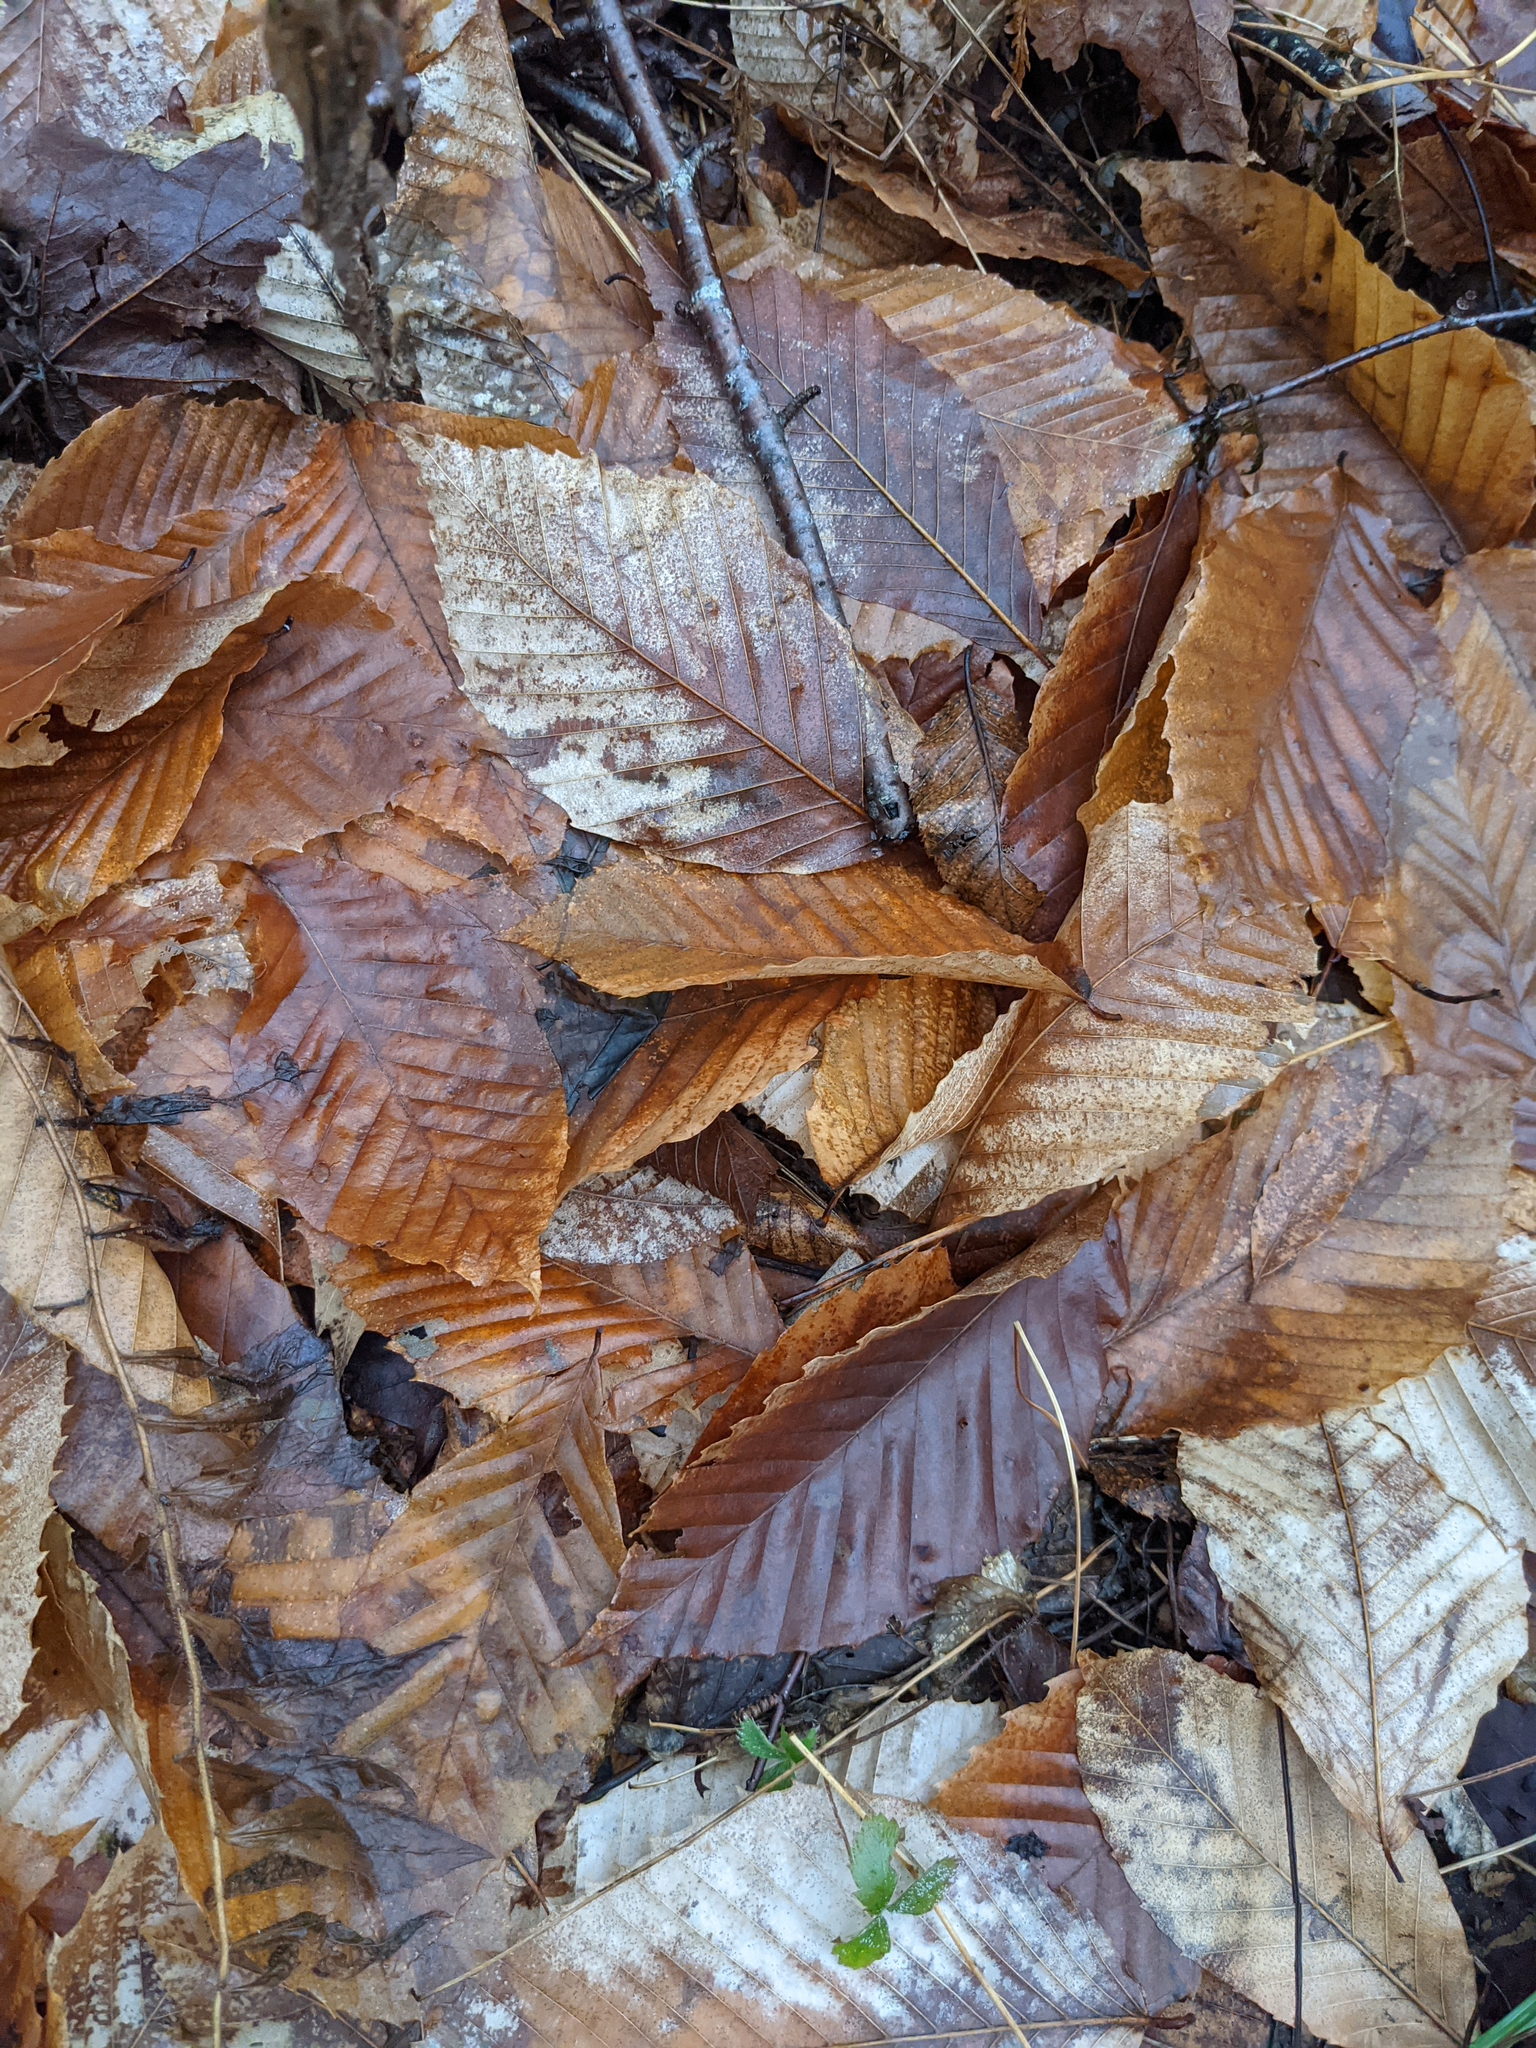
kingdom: Plantae
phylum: Tracheophyta
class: Magnoliopsida
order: Fagales
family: Fagaceae
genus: Fagus
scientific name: Fagus grandifolia
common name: American beech
